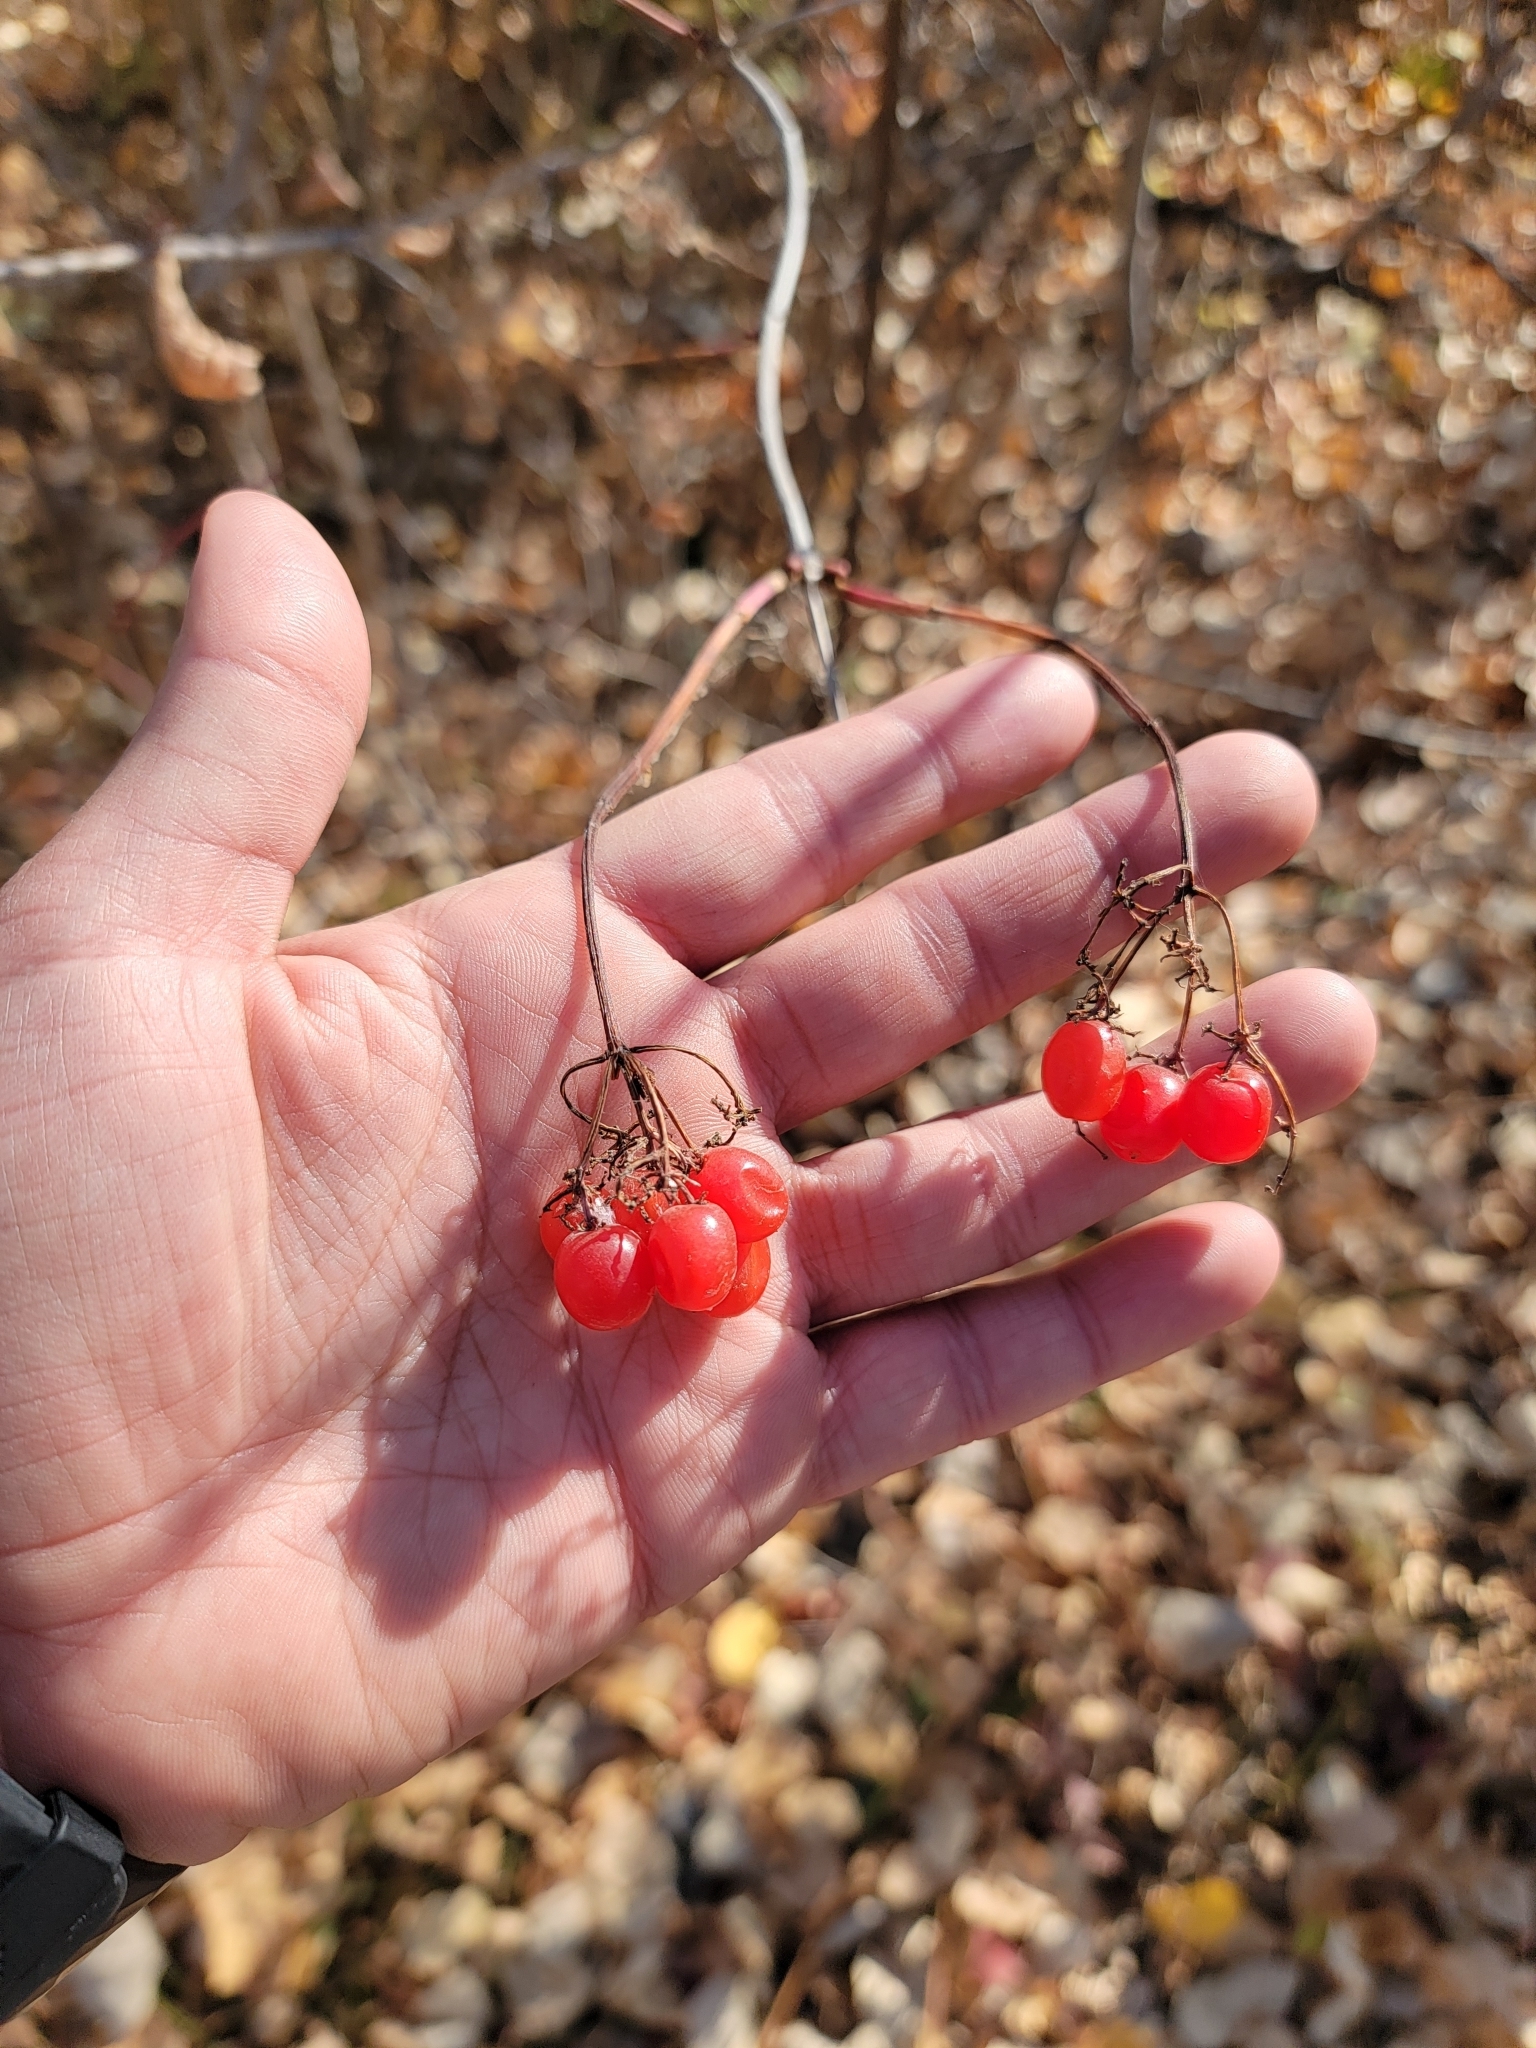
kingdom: Plantae
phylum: Tracheophyta
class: Magnoliopsida
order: Dipsacales
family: Viburnaceae
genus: Viburnum
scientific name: Viburnum opulus
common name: Guelder-rose
